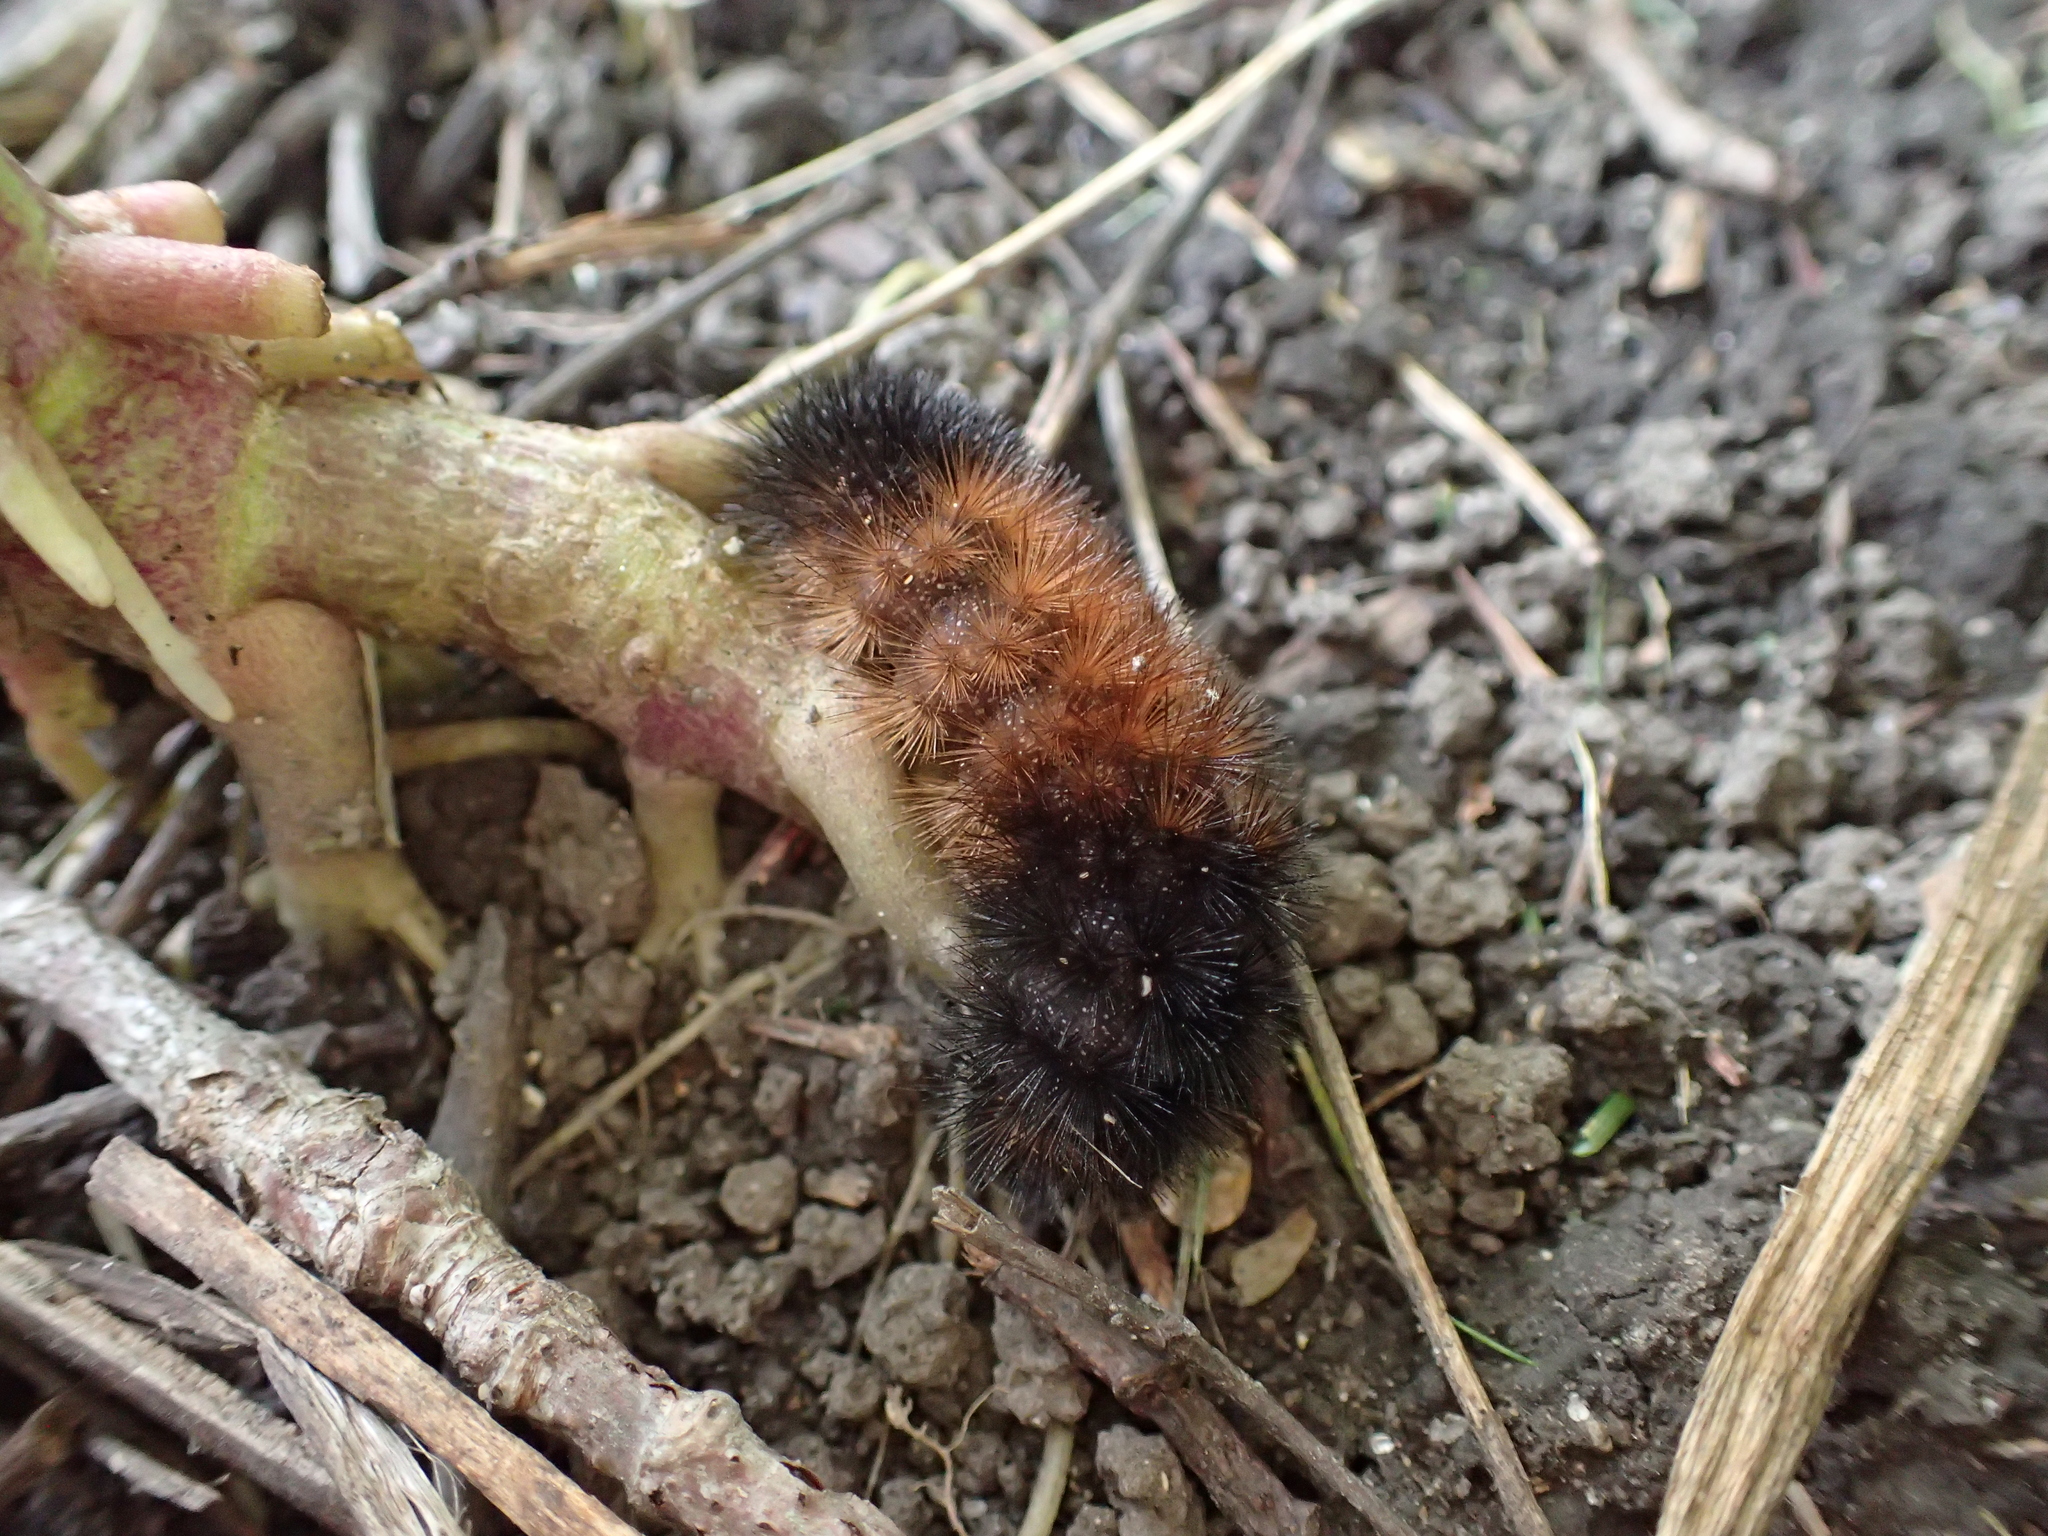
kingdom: Animalia
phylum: Arthropoda
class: Insecta
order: Lepidoptera
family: Erebidae
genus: Pyrrharctia
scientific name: Pyrrharctia isabella
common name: Isabella tiger moth
